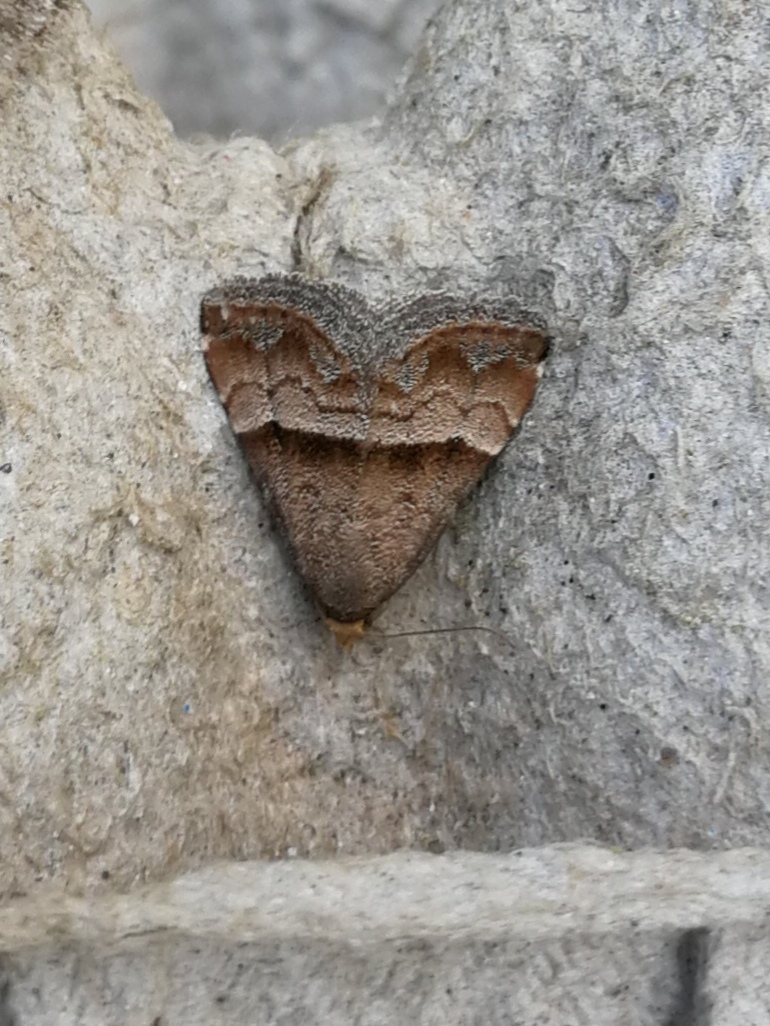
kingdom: Animalia
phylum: Arthropoda
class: Insecta
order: Lepidoptera
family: Noctuidae
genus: Odice
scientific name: Odice jucunda
